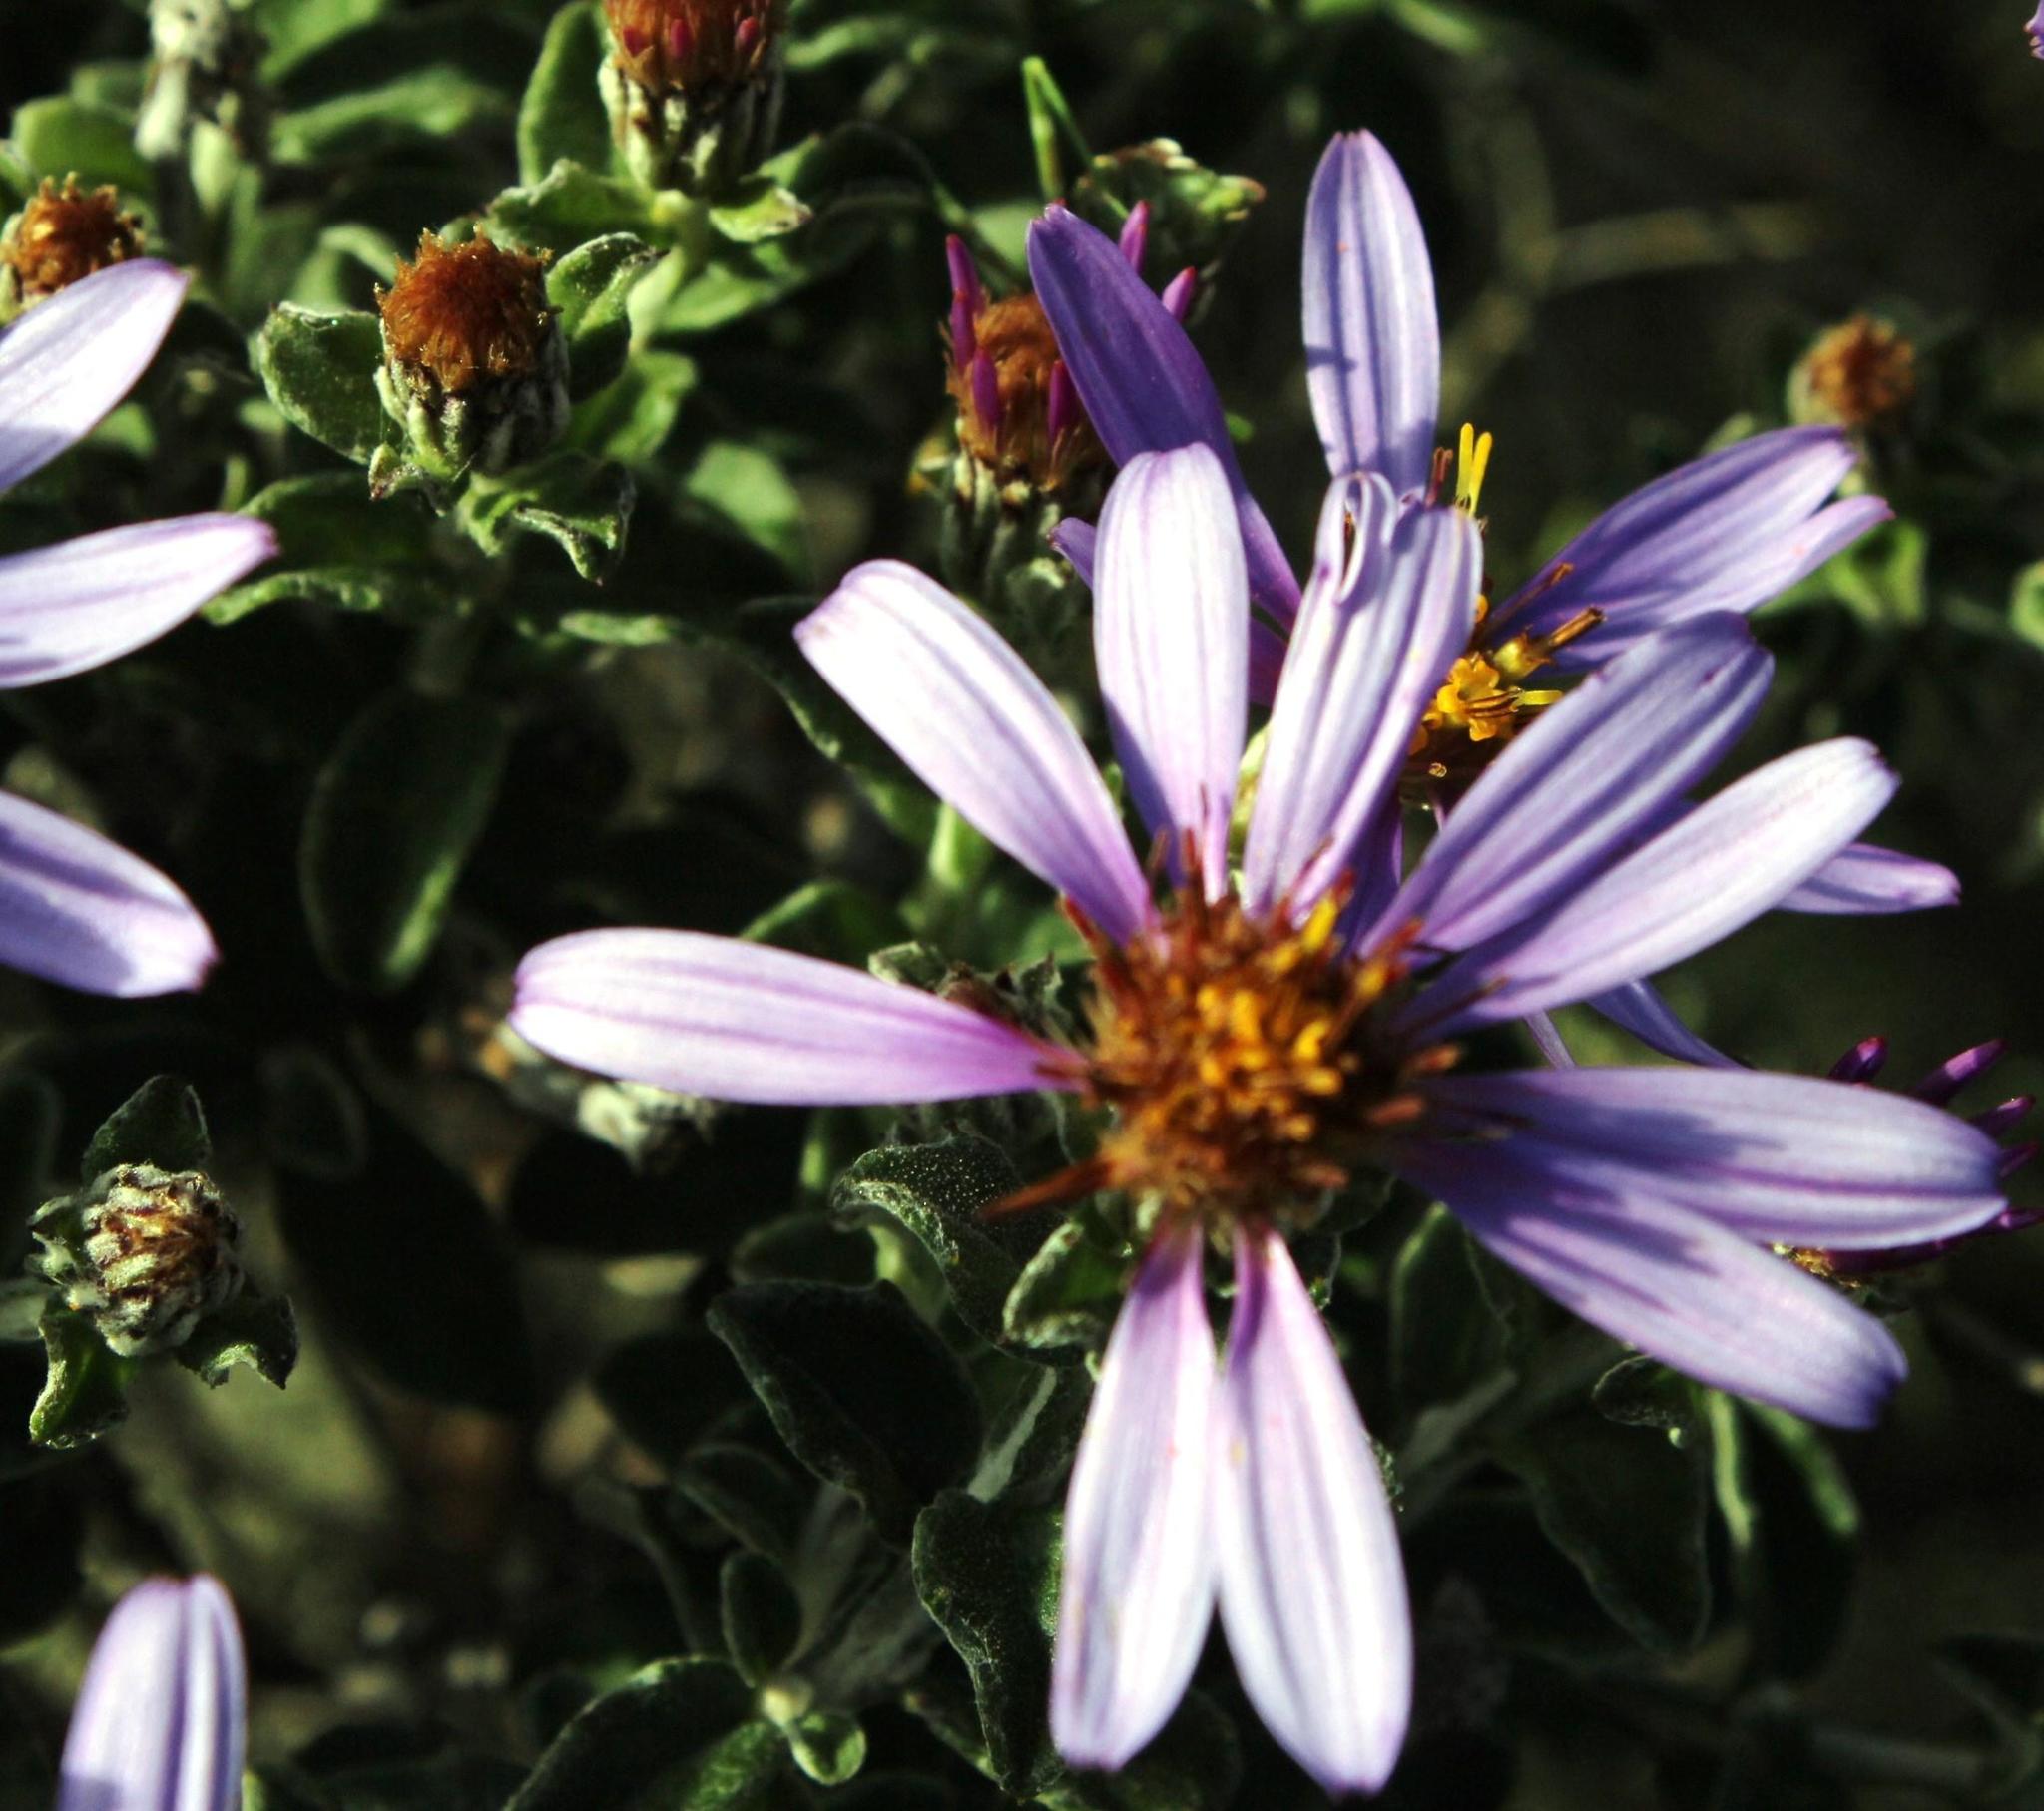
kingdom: Plantae
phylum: Tracheophyta
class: Magnoliopsida
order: Asterales
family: Asteraceae
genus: Printzia
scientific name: Printzia polifolia
